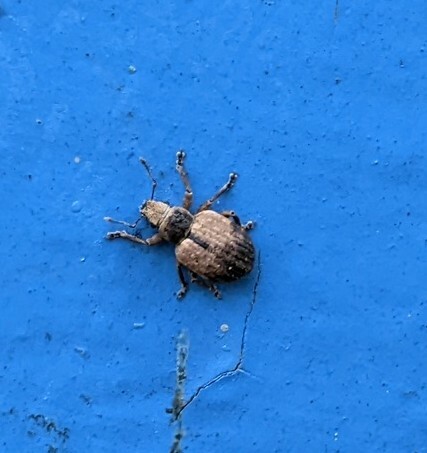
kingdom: Animalia
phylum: Arthropoda
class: Insecta
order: Coleoptera
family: Curculionidae
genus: Strophosoma
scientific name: Strophosoma melanogrammum
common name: Weevil
